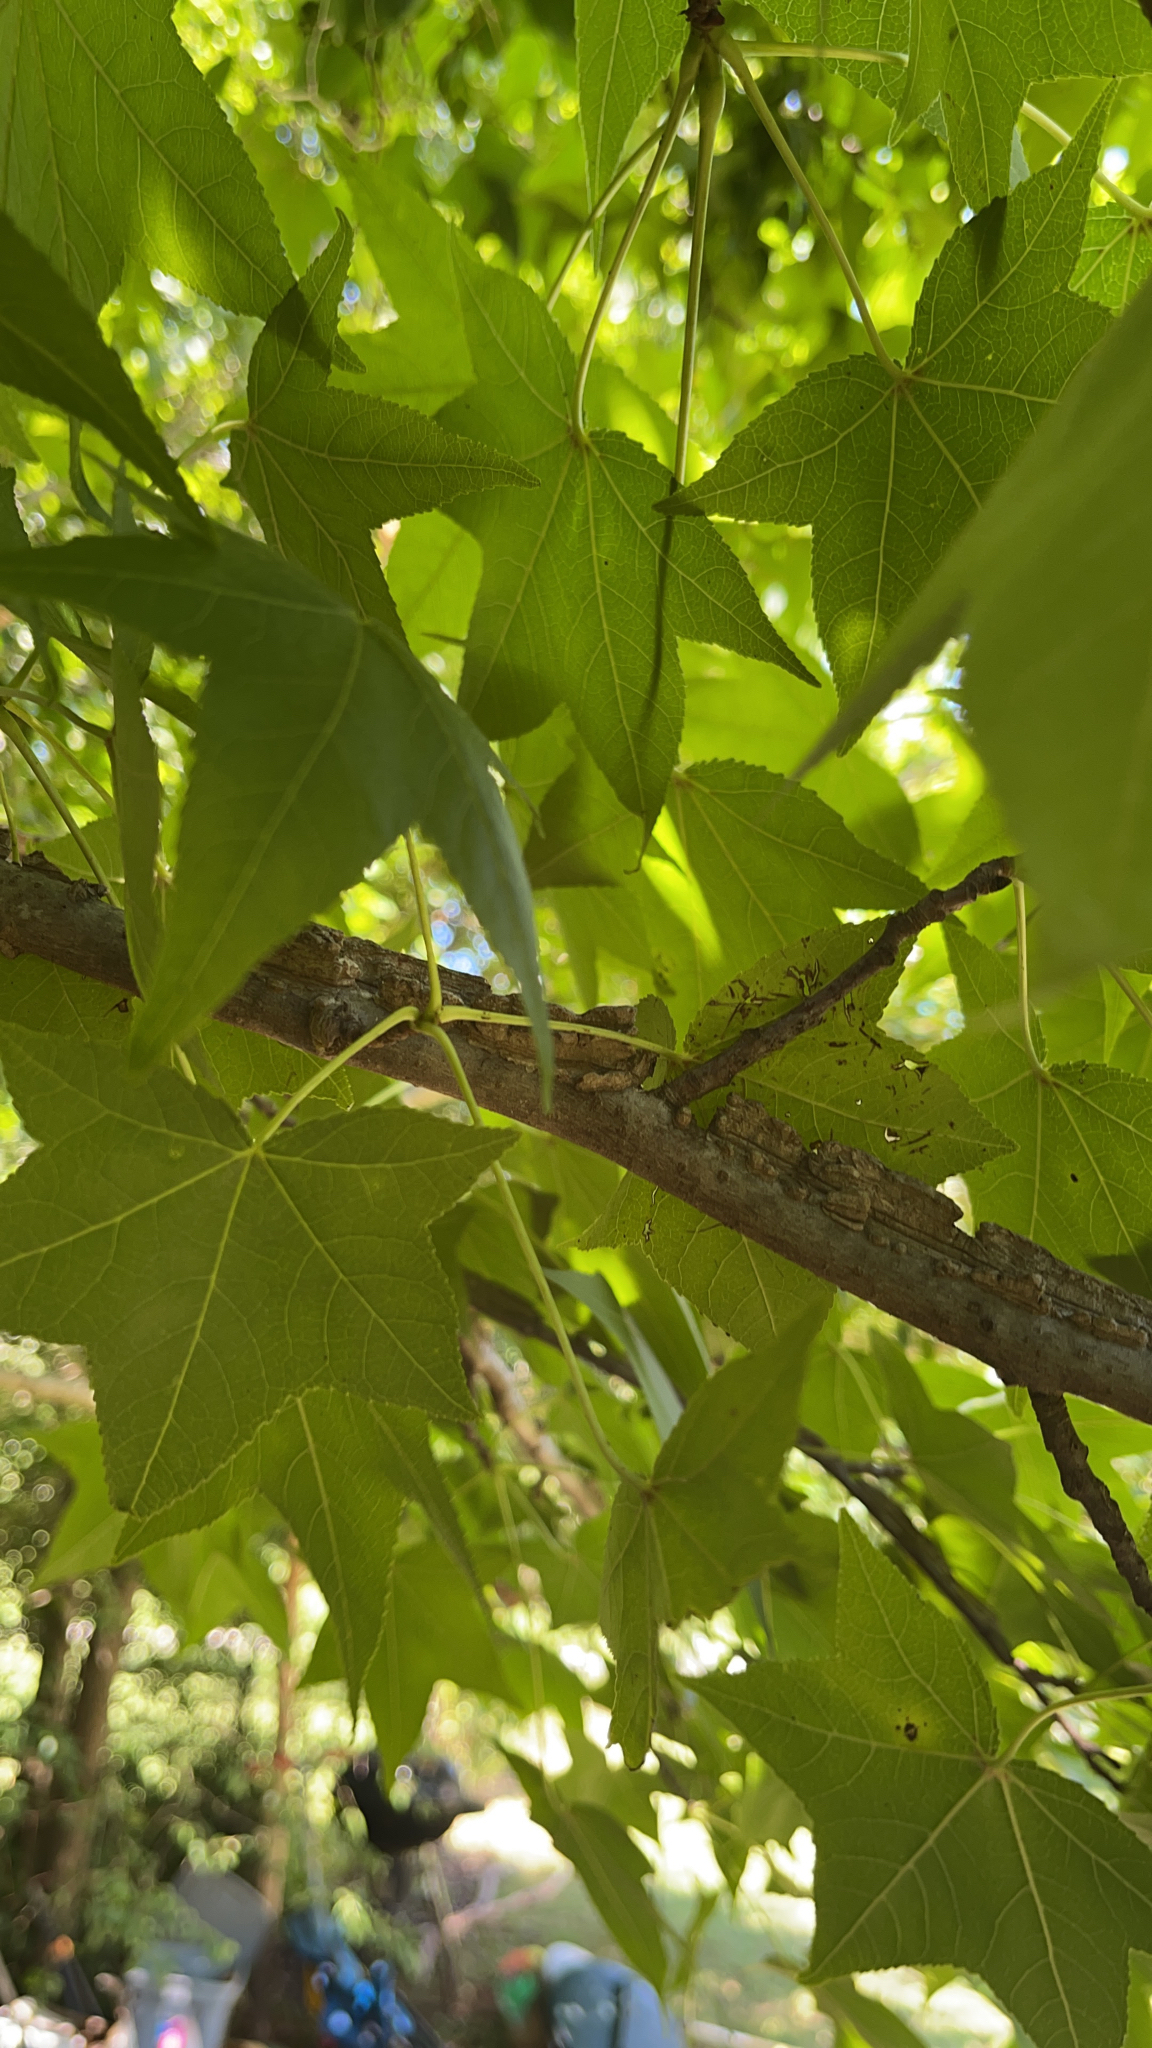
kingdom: Plantae
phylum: Tracheophyta
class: Magnoliopsida
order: Saxifragales
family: Altingiaceae
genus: Liquidambar
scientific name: Liquidambar styraciflua
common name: Sweet gum
